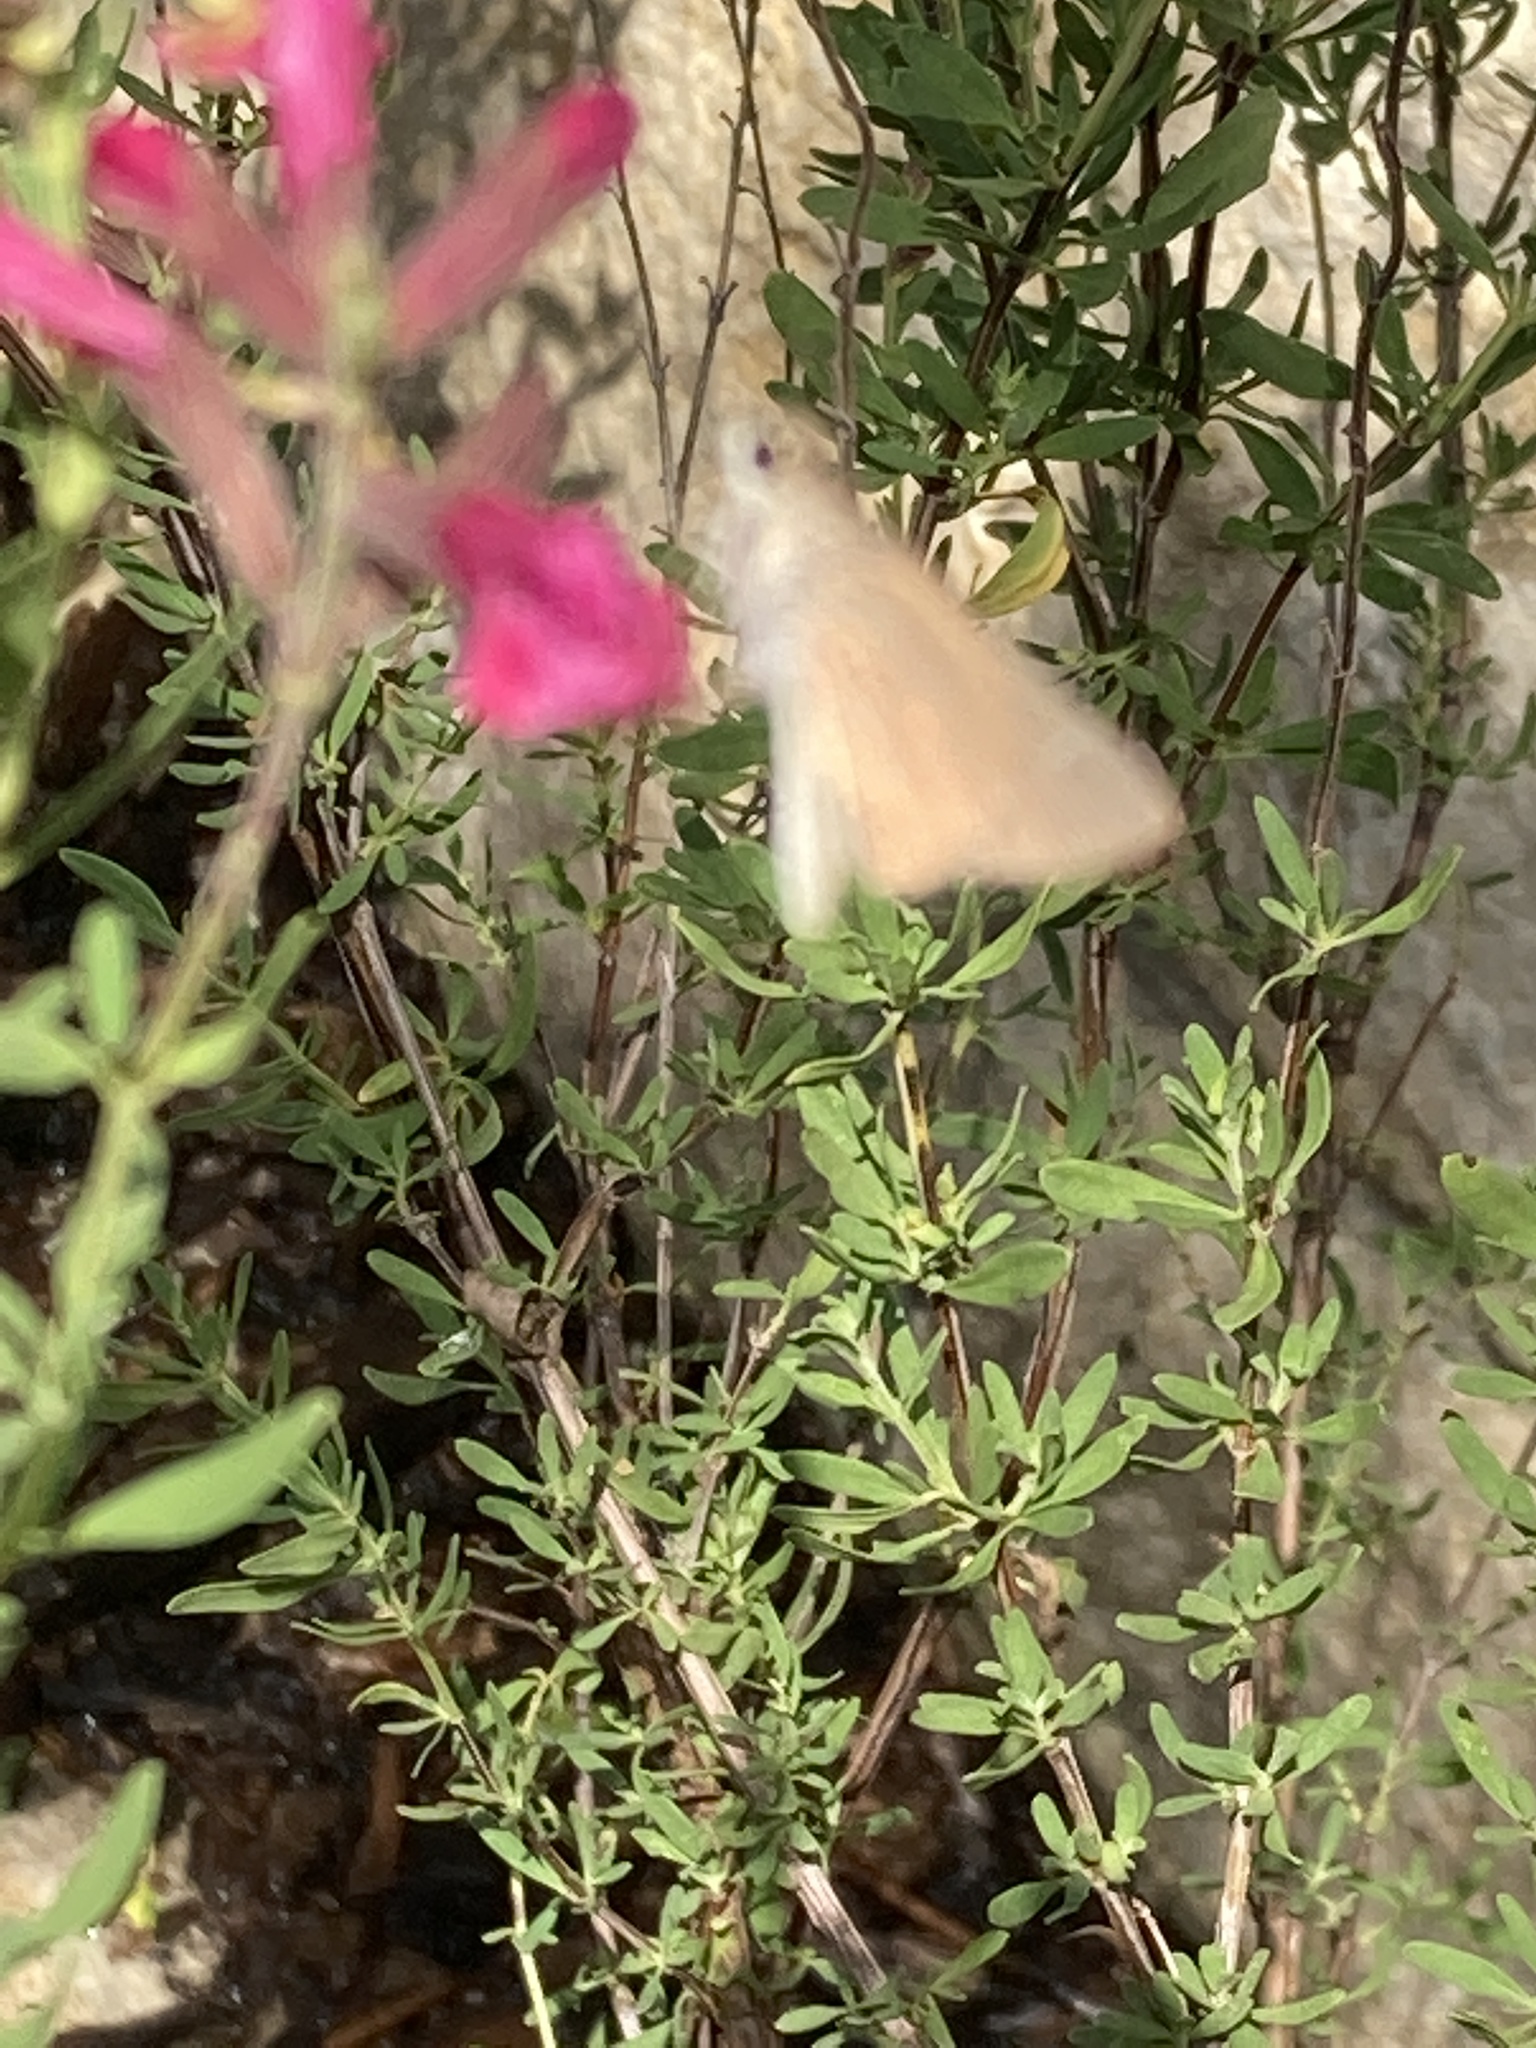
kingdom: Animalia
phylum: Arthropoda
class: Insecta
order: Lepidoptera
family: Hesperiidae
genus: Lerodea
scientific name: Lerodea eufala
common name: Eufala skipper
